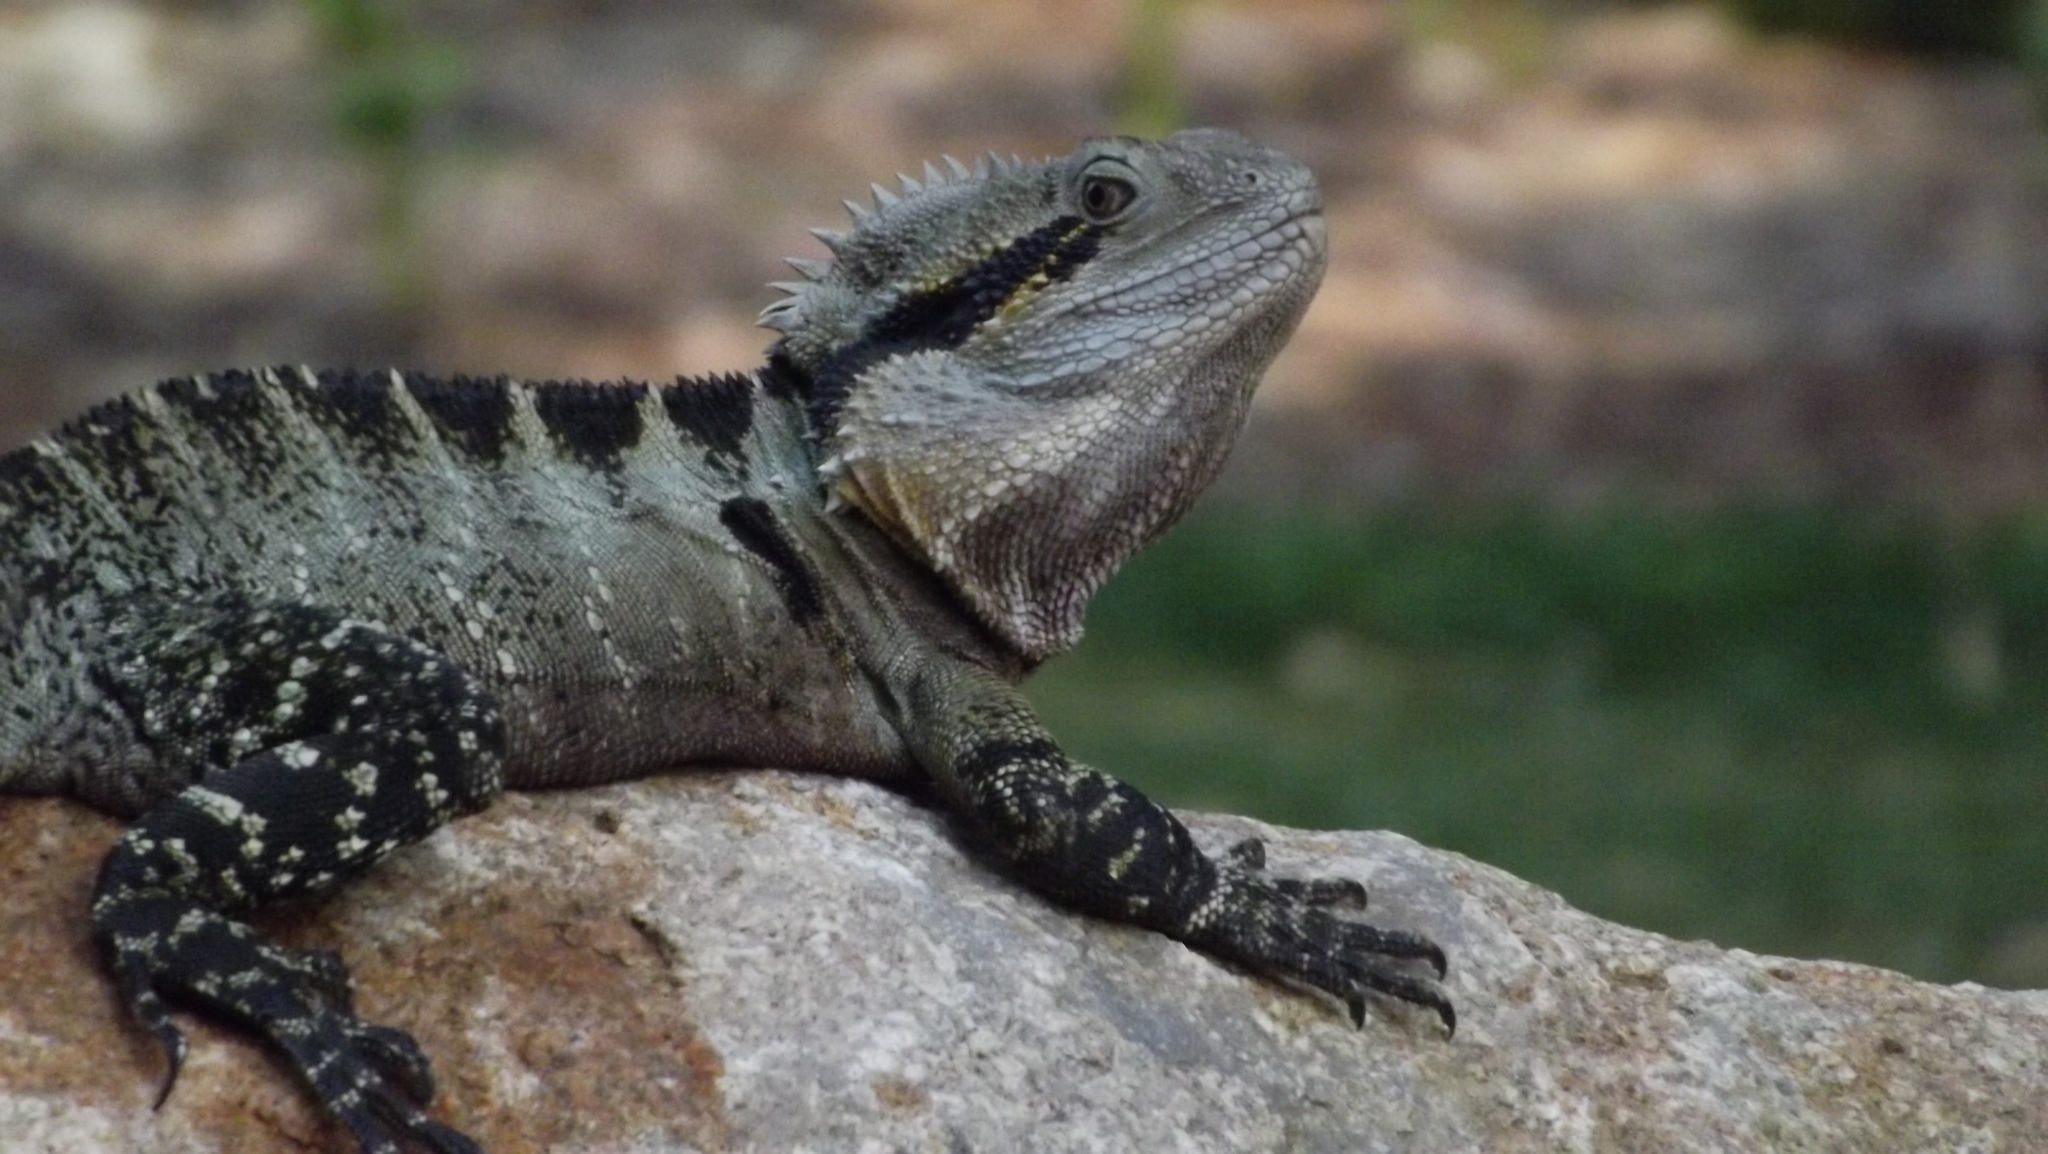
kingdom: Animalia
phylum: Chordata
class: Squamata
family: Agamidae
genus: Intellagama
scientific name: Intellagama lesueurii
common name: Eastern water dragon
